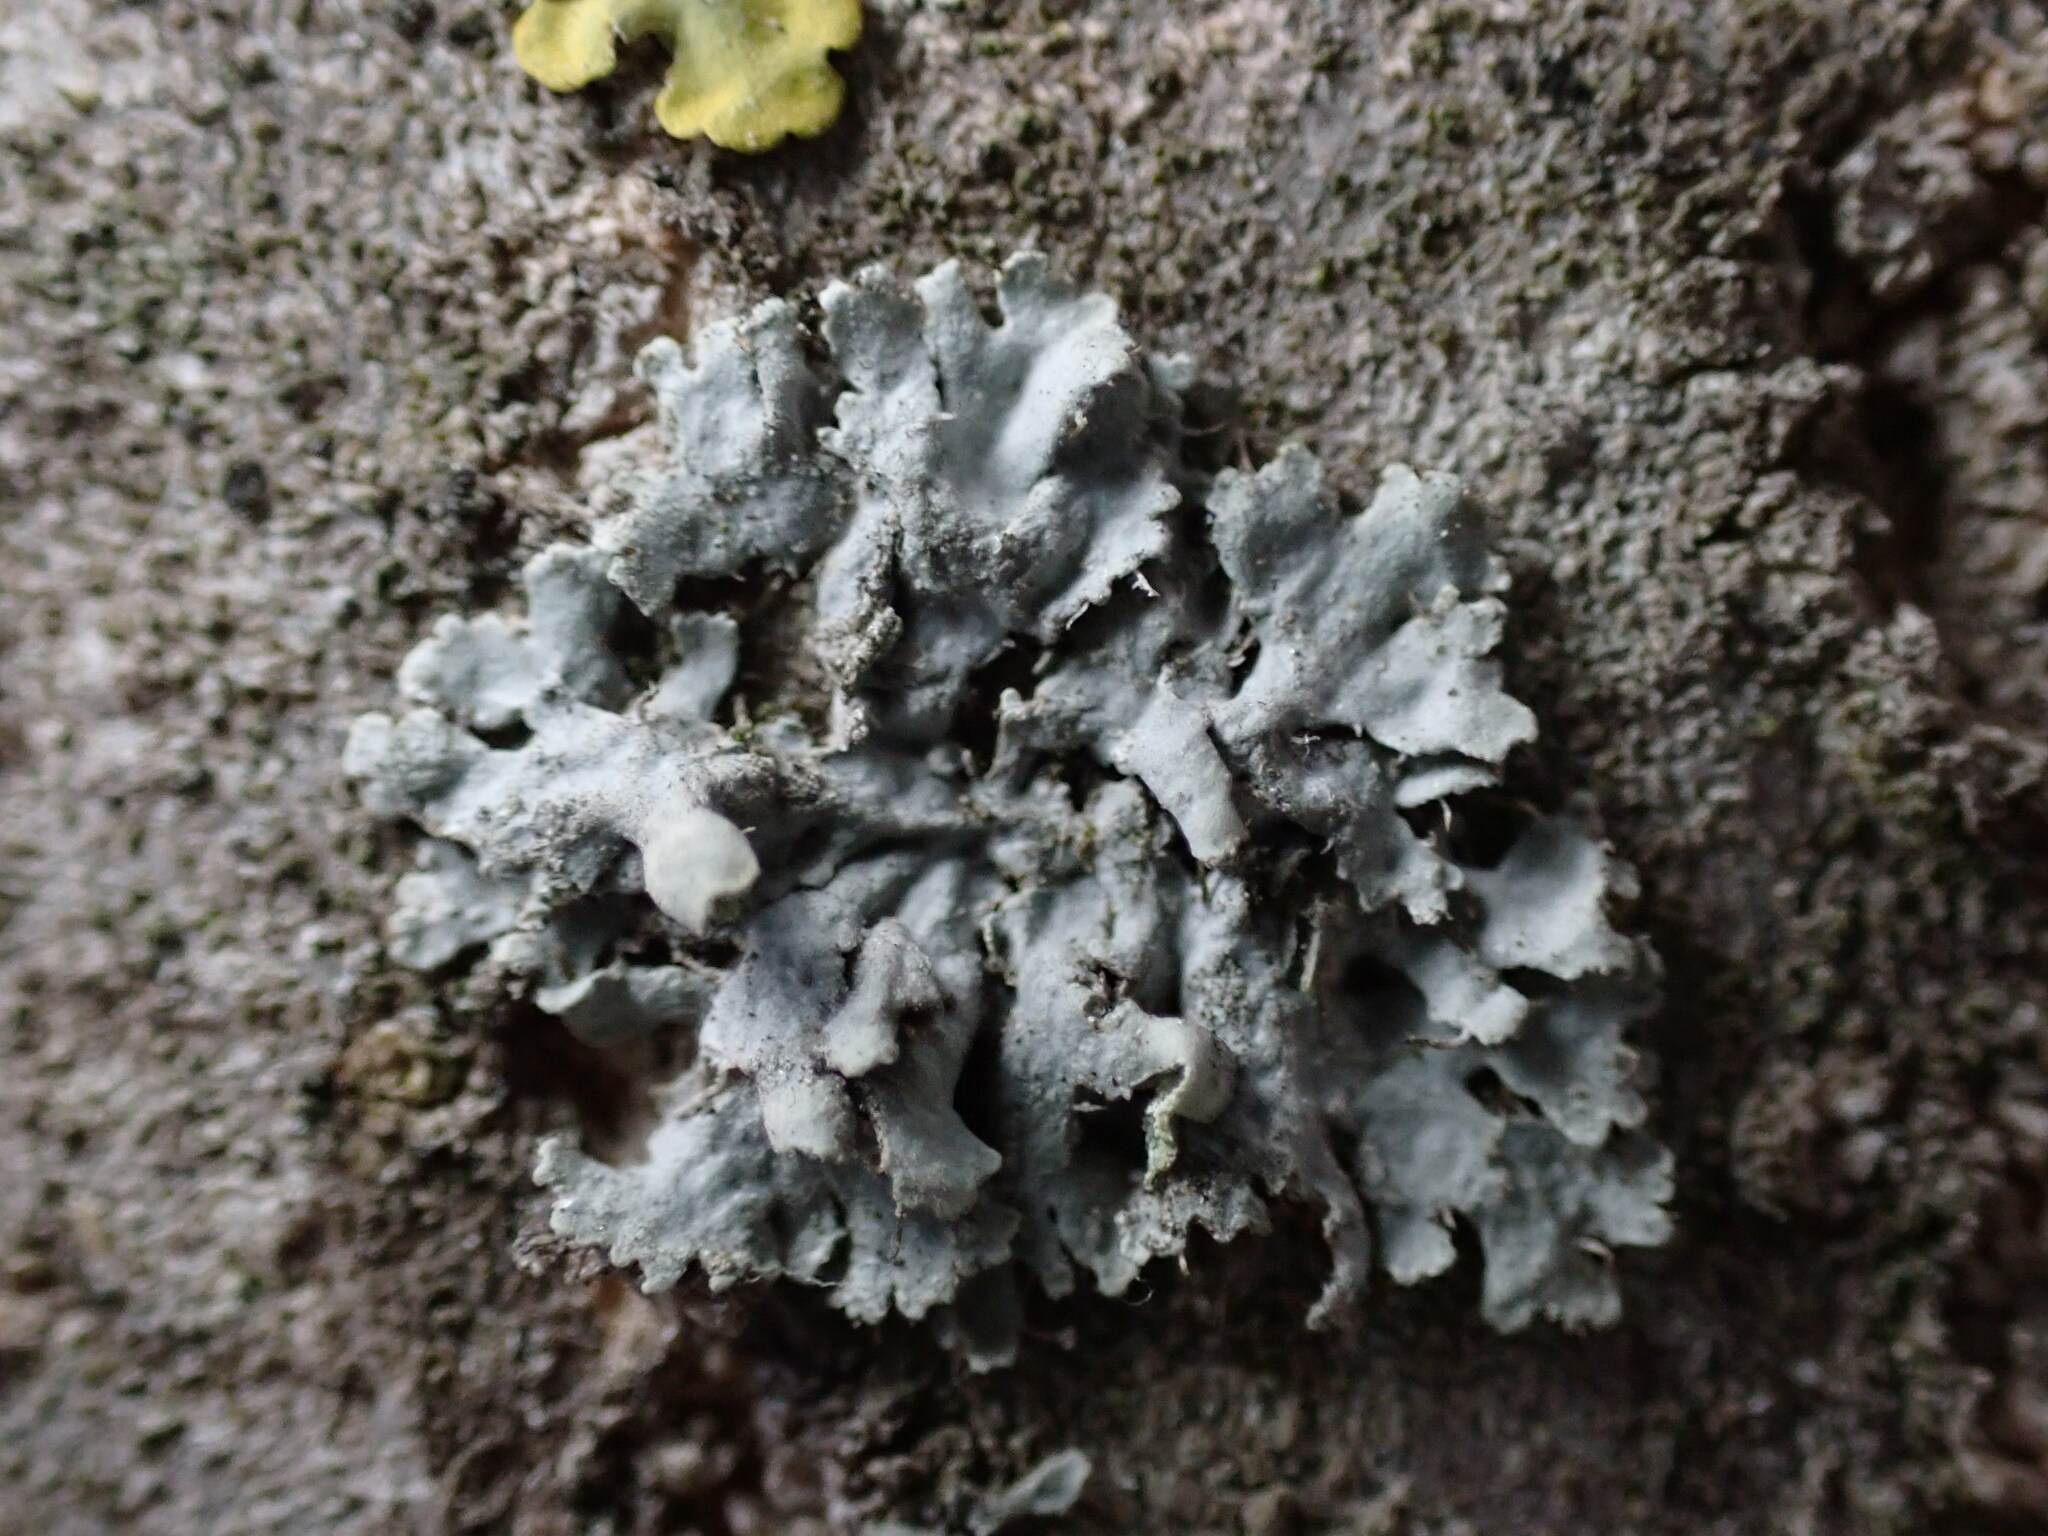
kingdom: Fungi
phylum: Ascomycota
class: Lecanoromycetes
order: Caliciales
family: Physciaceae
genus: Physcia
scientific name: Physcia adscendens
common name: Hooded rosette lichen
